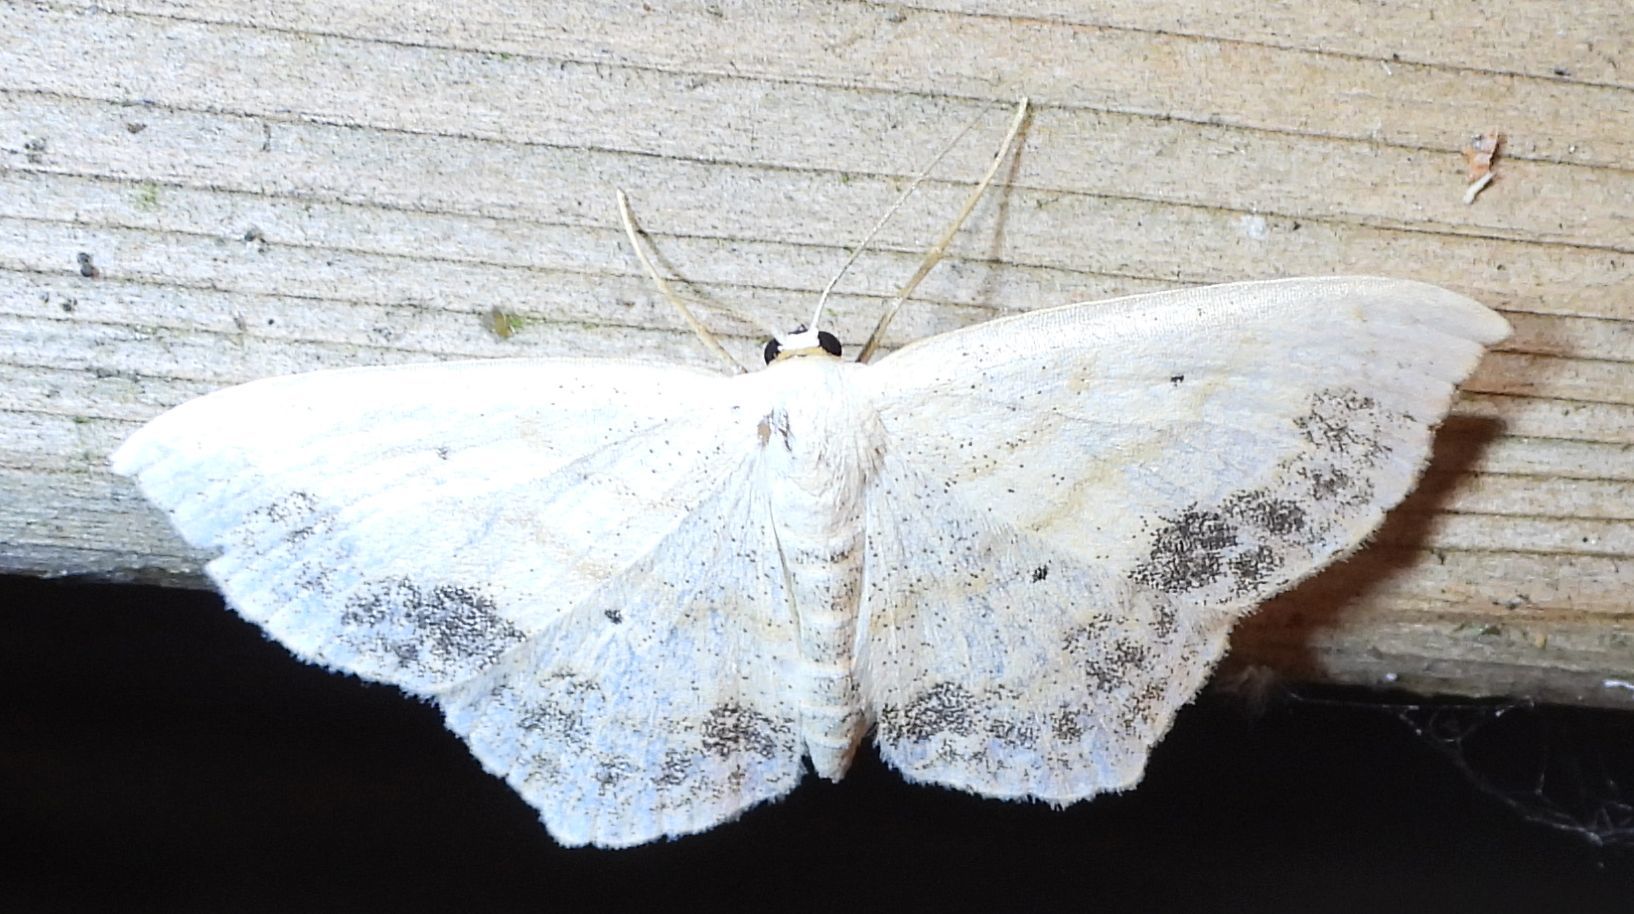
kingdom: Animalia
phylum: Arthropoda
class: Insecta
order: Lepidoptera
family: Geometridae
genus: Scopula
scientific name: Scopula limboundata
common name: Large lace border
